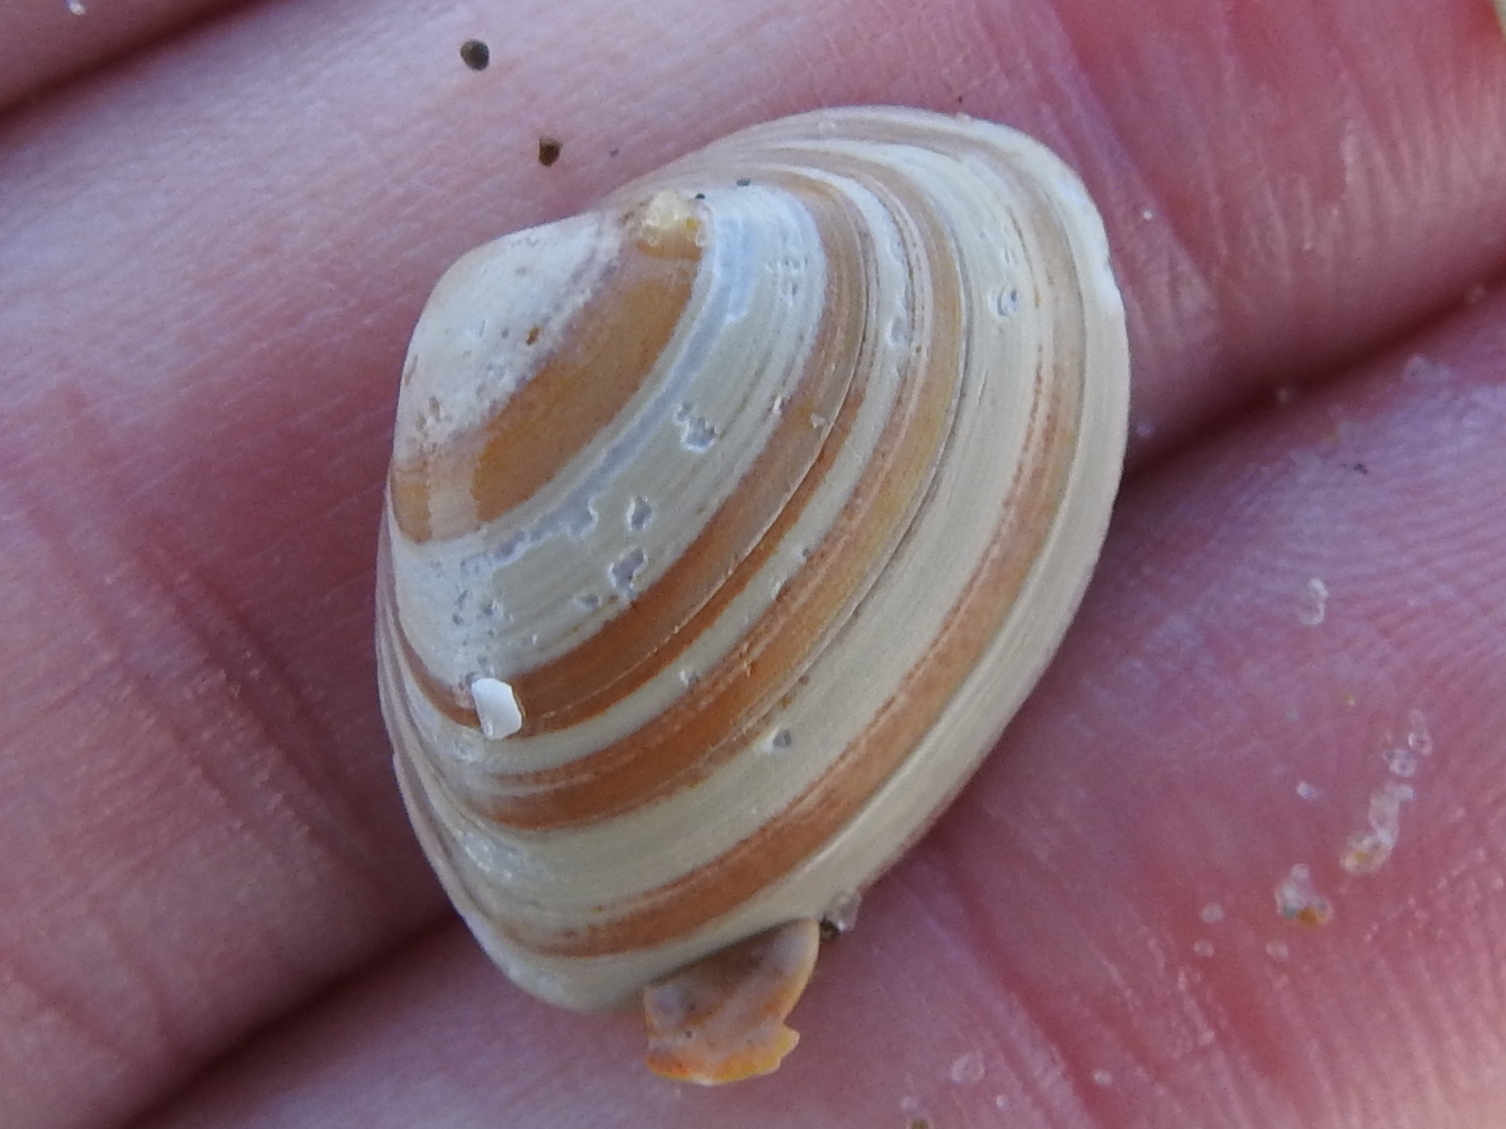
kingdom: Animalia
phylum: Mollusca
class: Bivalvia
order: Venerida
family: Mactridae
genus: Spisula
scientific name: Spisula elliptica
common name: Elliptic trough shell
